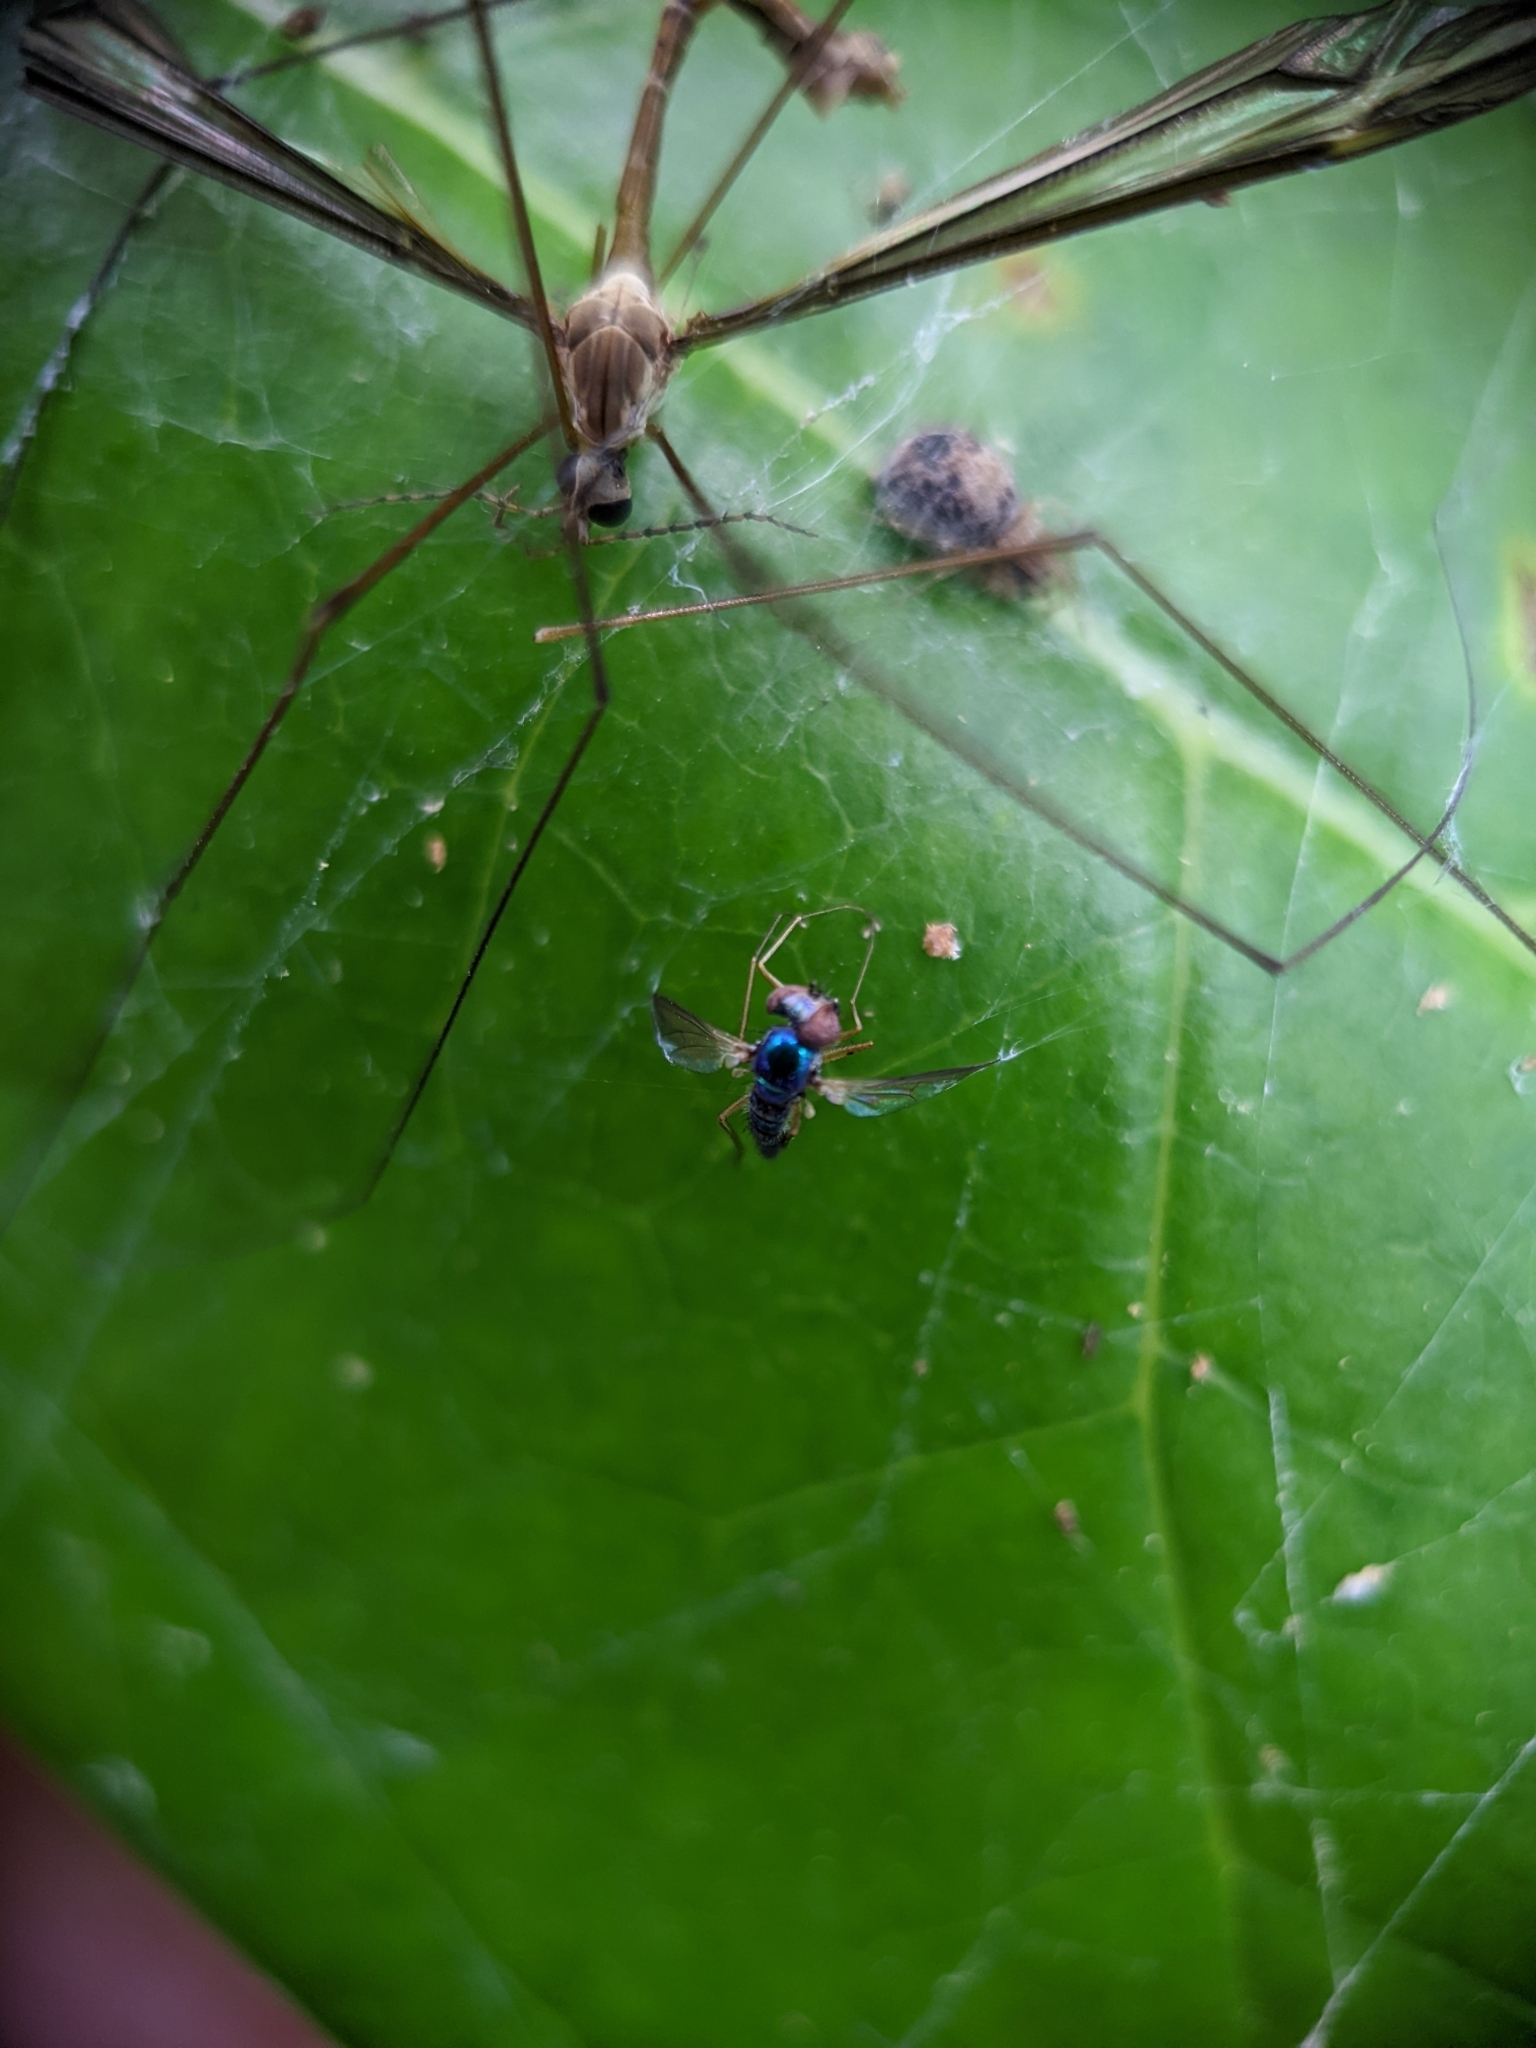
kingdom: Animalia
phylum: Arthropoda
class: Insecta
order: Diptera
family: Dolichopodidae
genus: Condylostylus
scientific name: Condylostylus banksii
